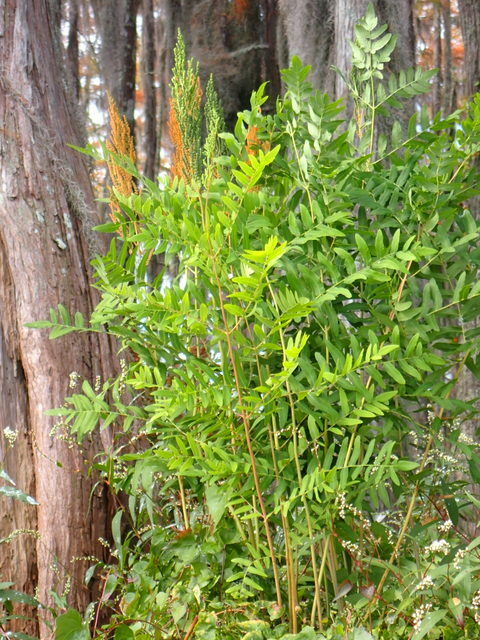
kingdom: Plantae
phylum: Tracheophyta
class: Polypodiopsida
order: Osmundales
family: Osmundaceae
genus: Osmunda
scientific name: Osmunda spectabilis
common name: American royal fern
